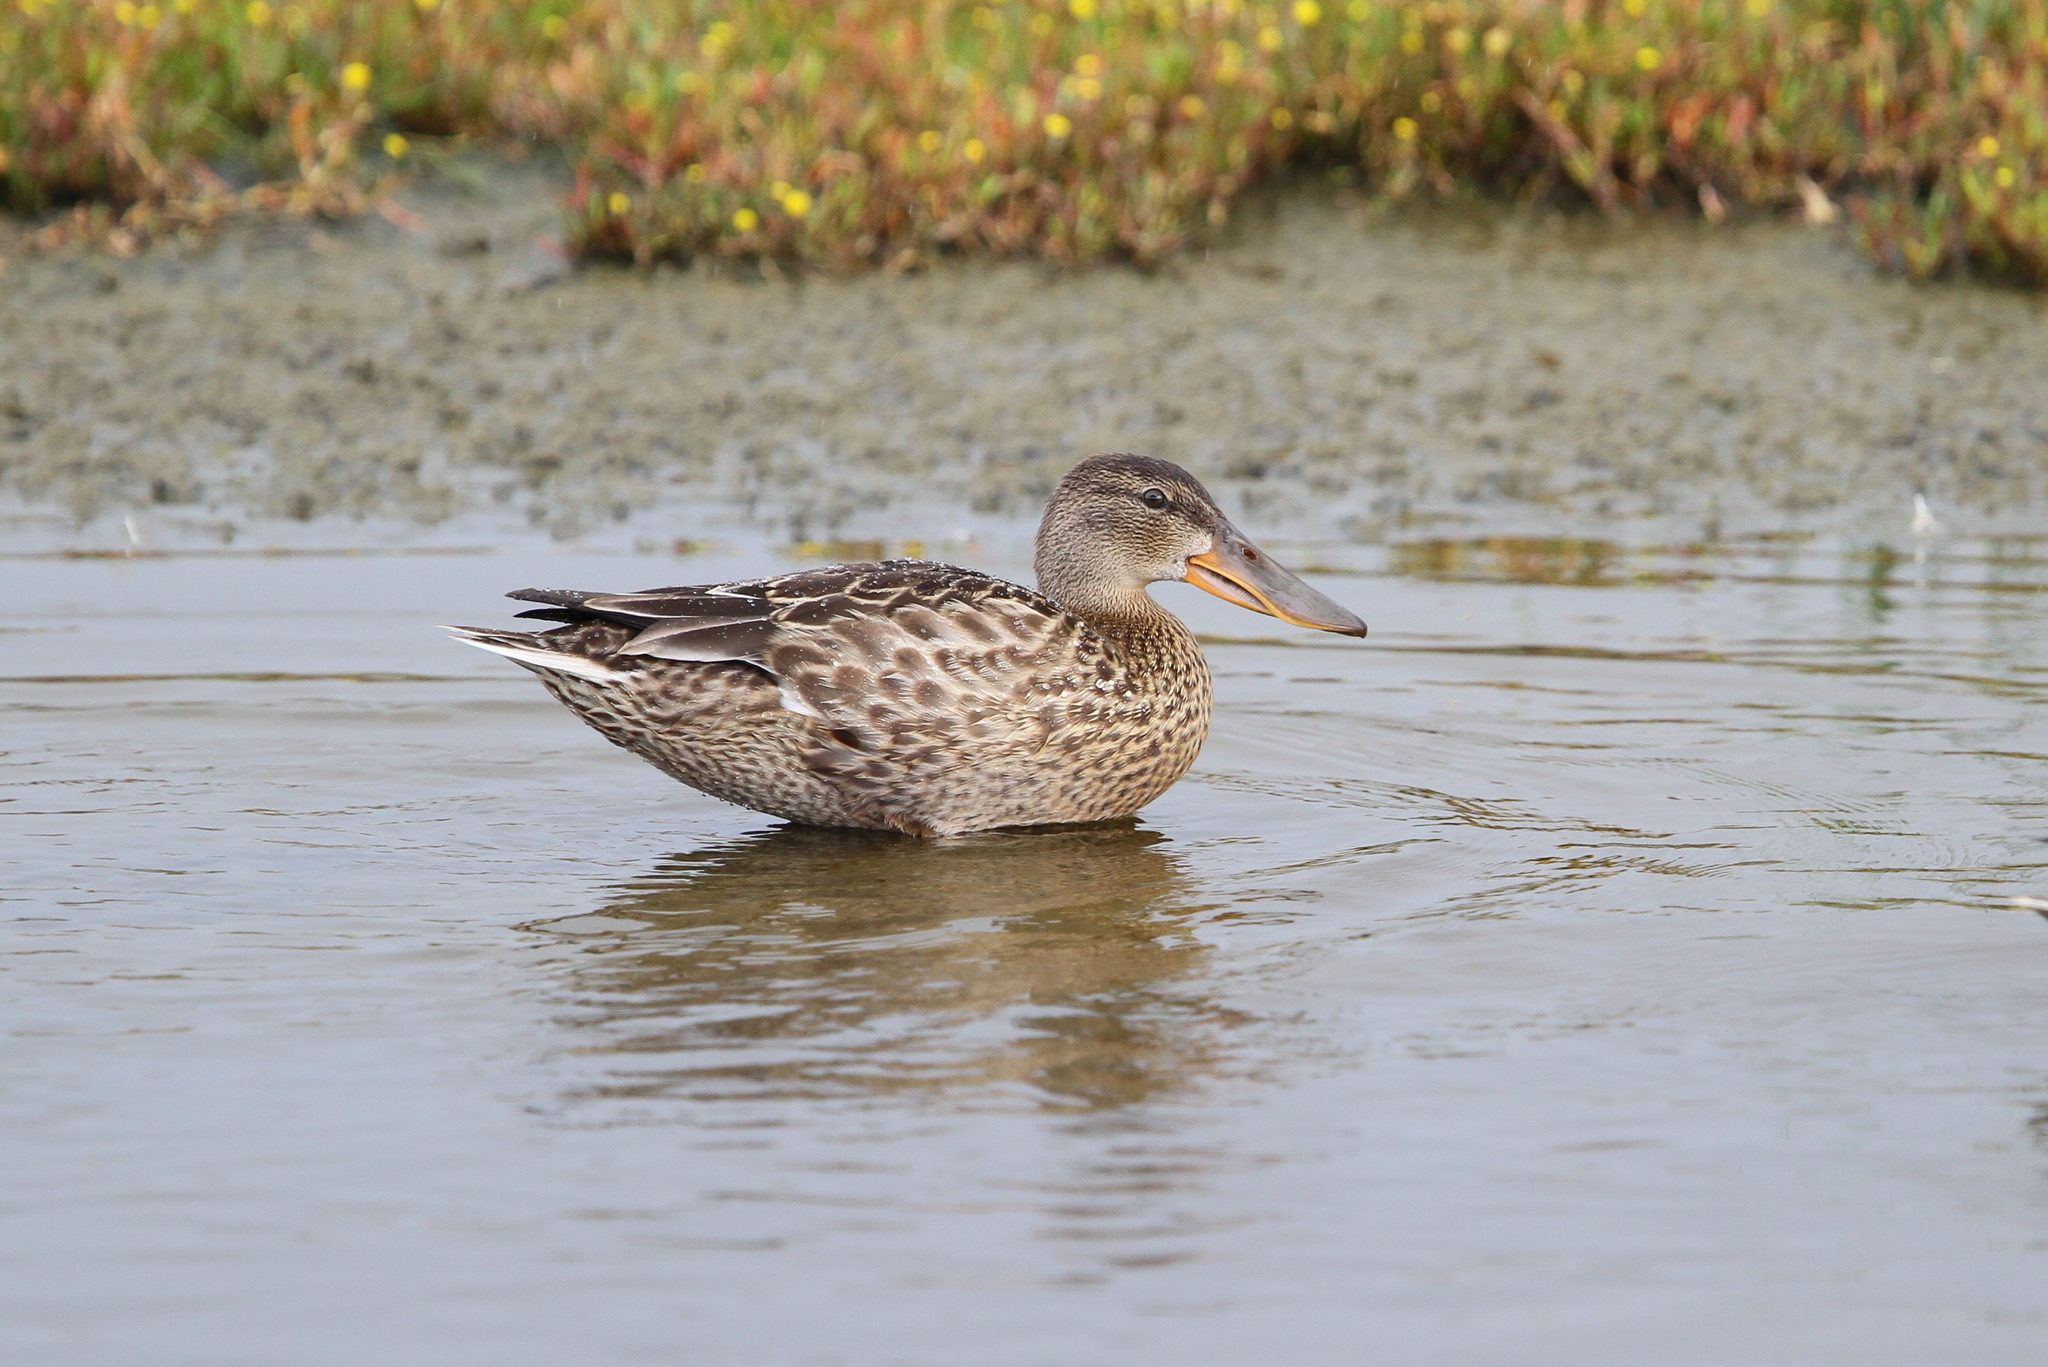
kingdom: Animalia
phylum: Chordata
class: Aves
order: Anseriformes
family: Anatidae
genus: Spatula
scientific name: Spatula clypeata
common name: Northern shoveler
